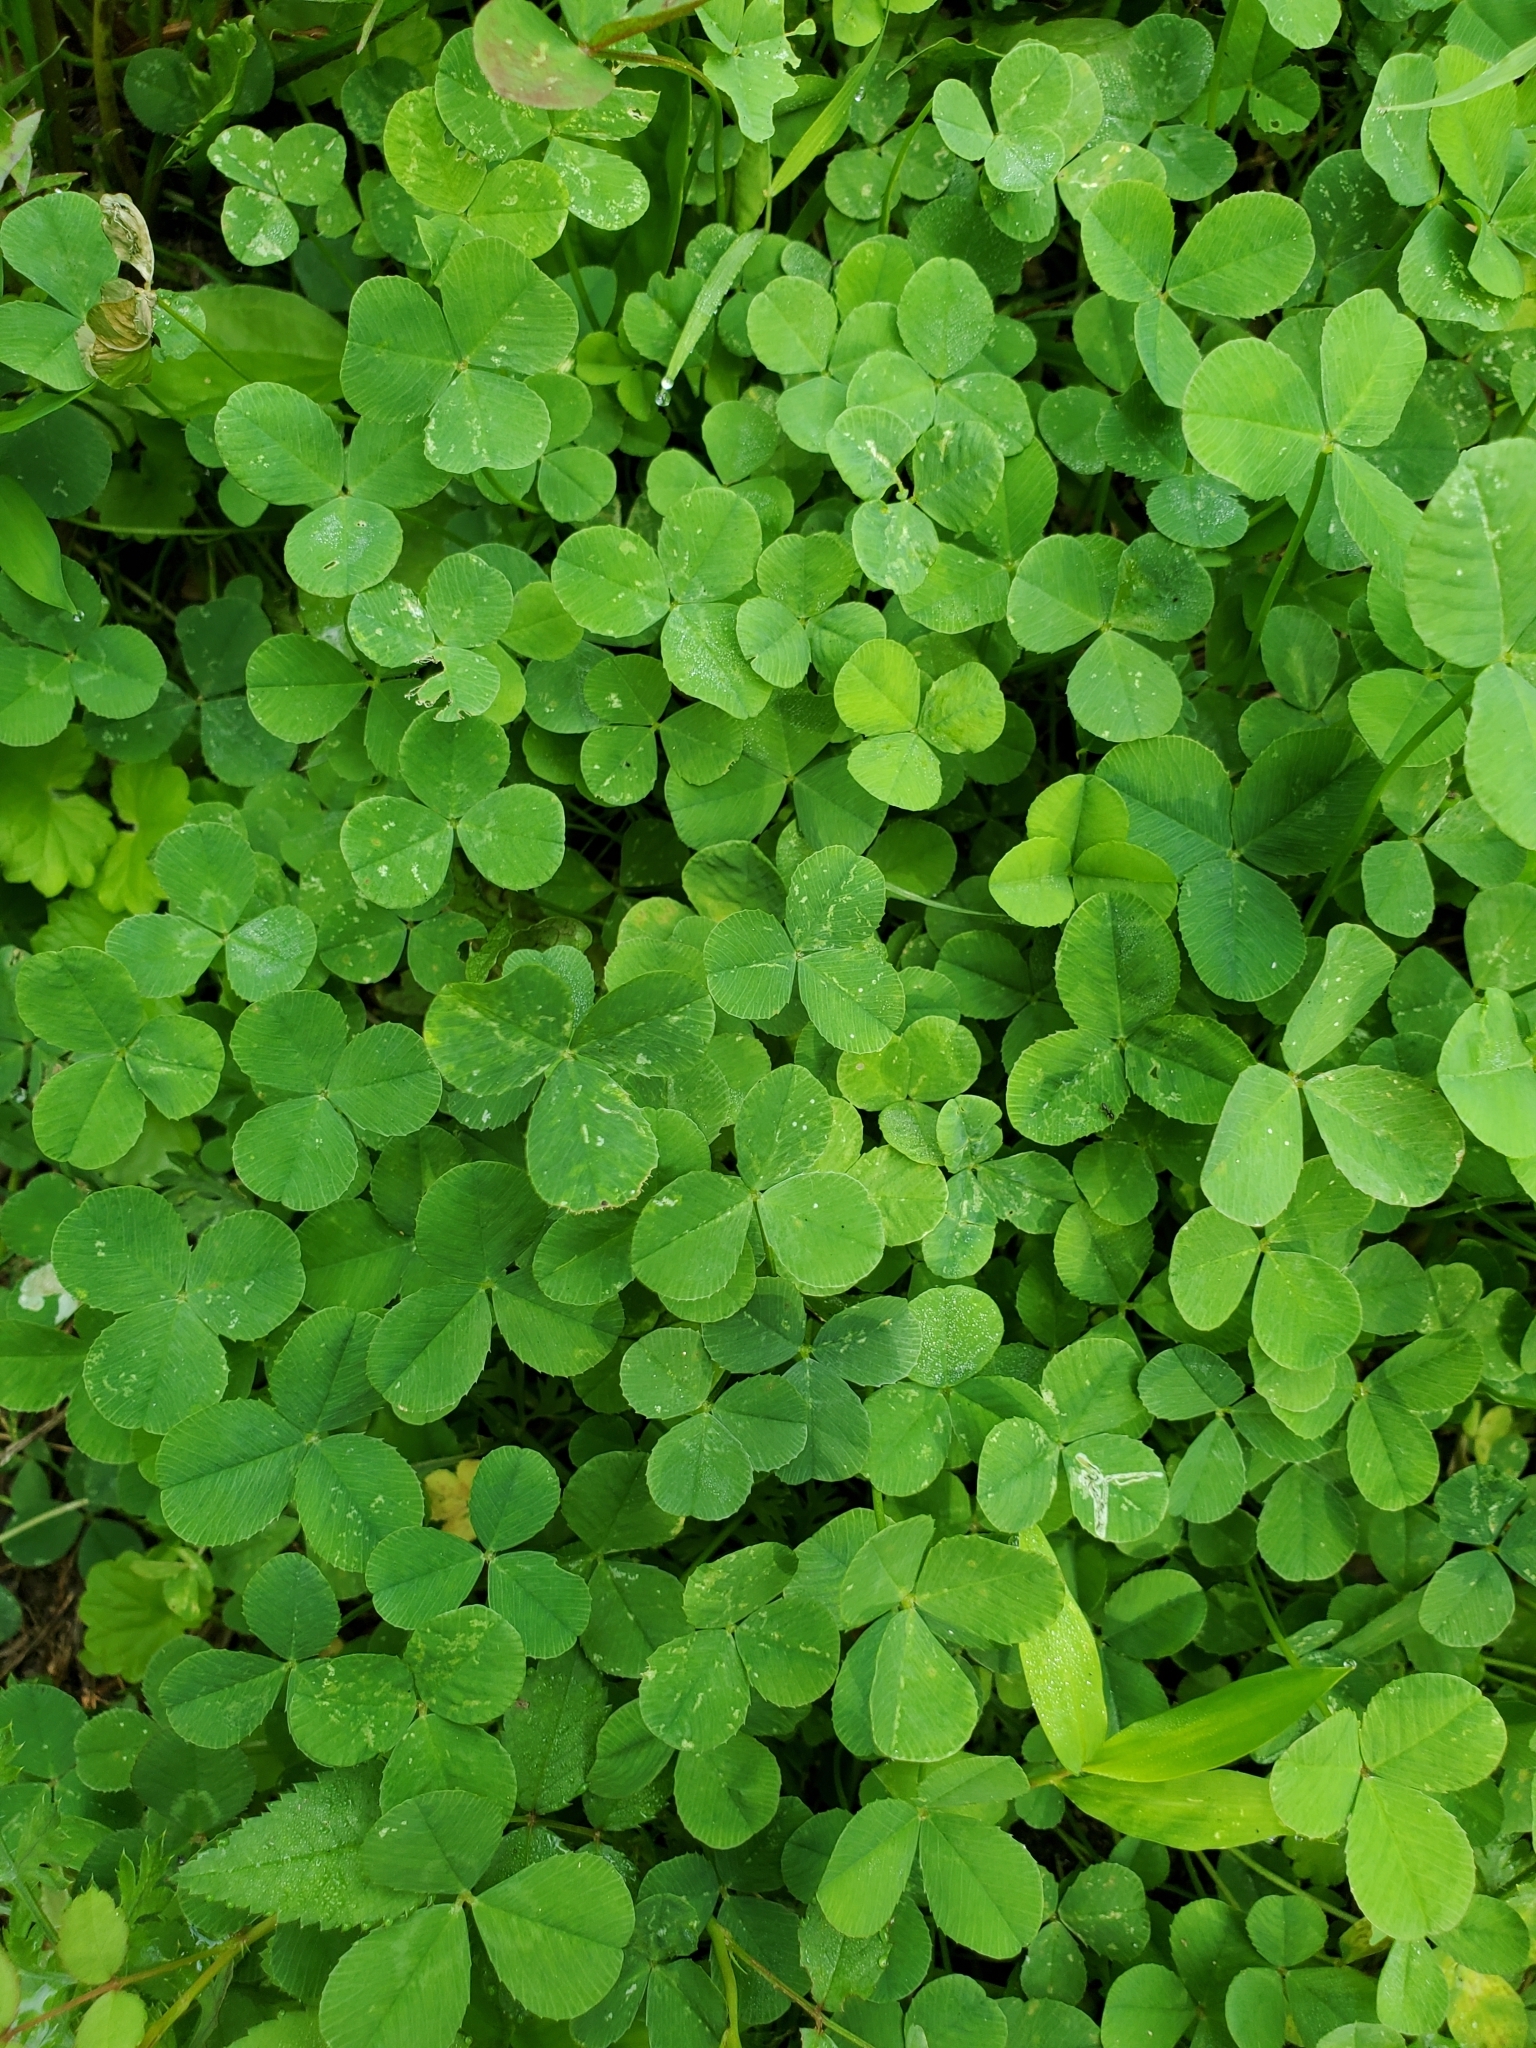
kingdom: Plantae
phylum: Tracheophyta
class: Magnoliopsida
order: Fabales
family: Fabaceae
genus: Trifolium
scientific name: Trifolium repens
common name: White clover
